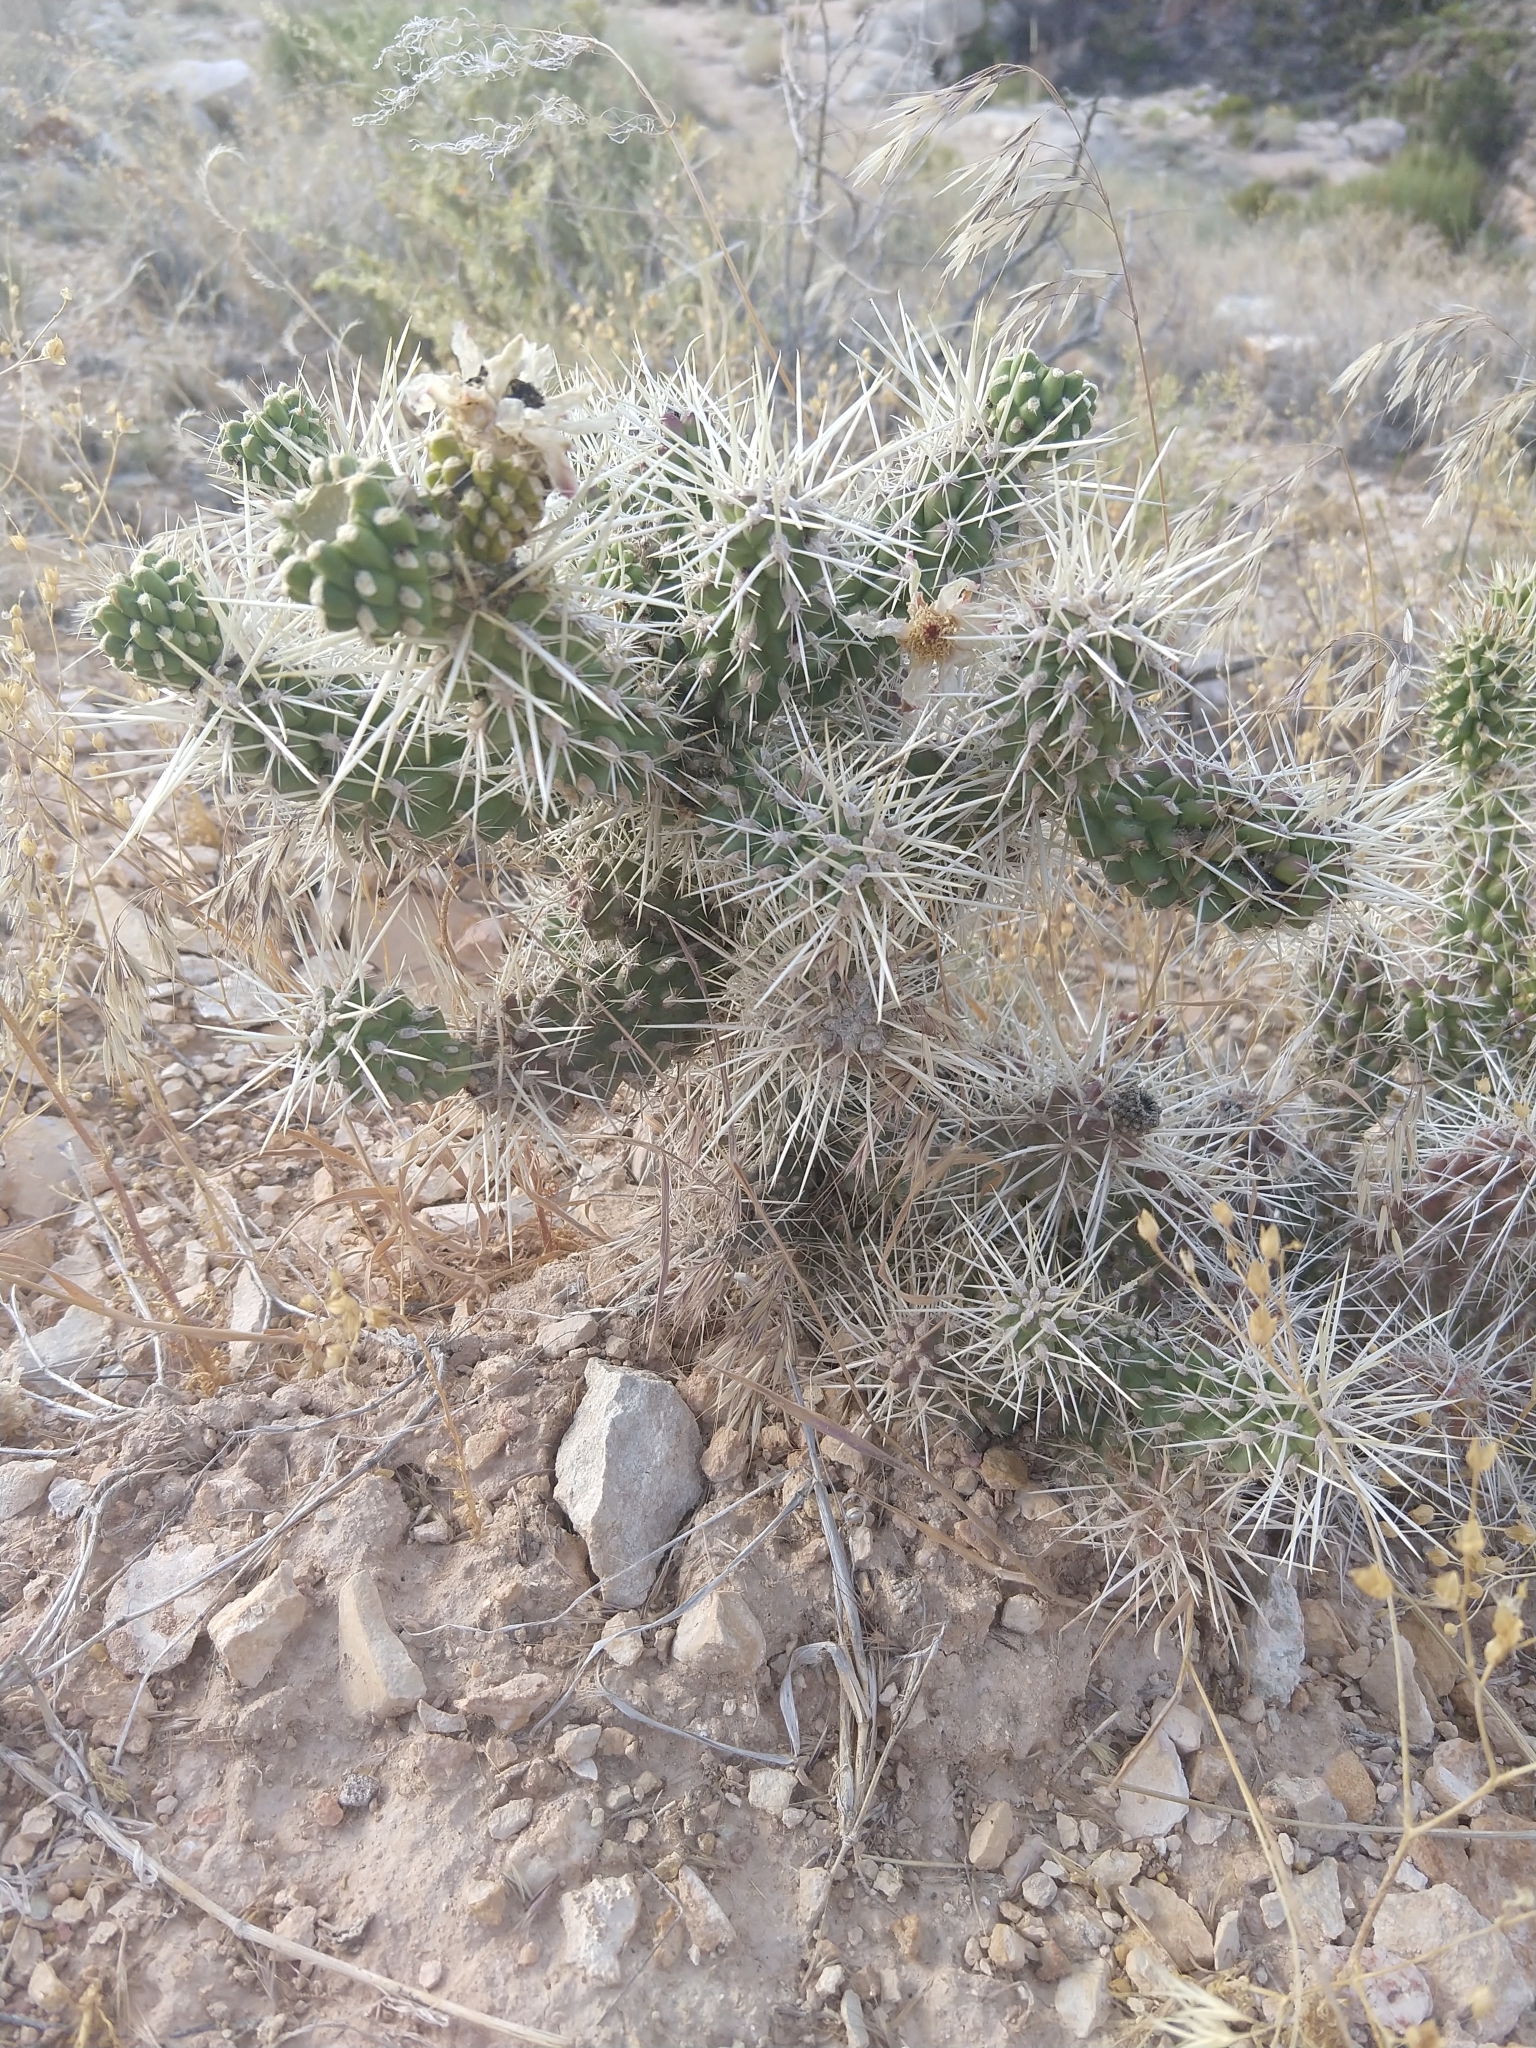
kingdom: Plantae
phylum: Tracheophyta
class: Magnoliopsida
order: Caryophyllales
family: Cactaceae
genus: Cylindropuntia
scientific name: Cylindropuntia whipplei
